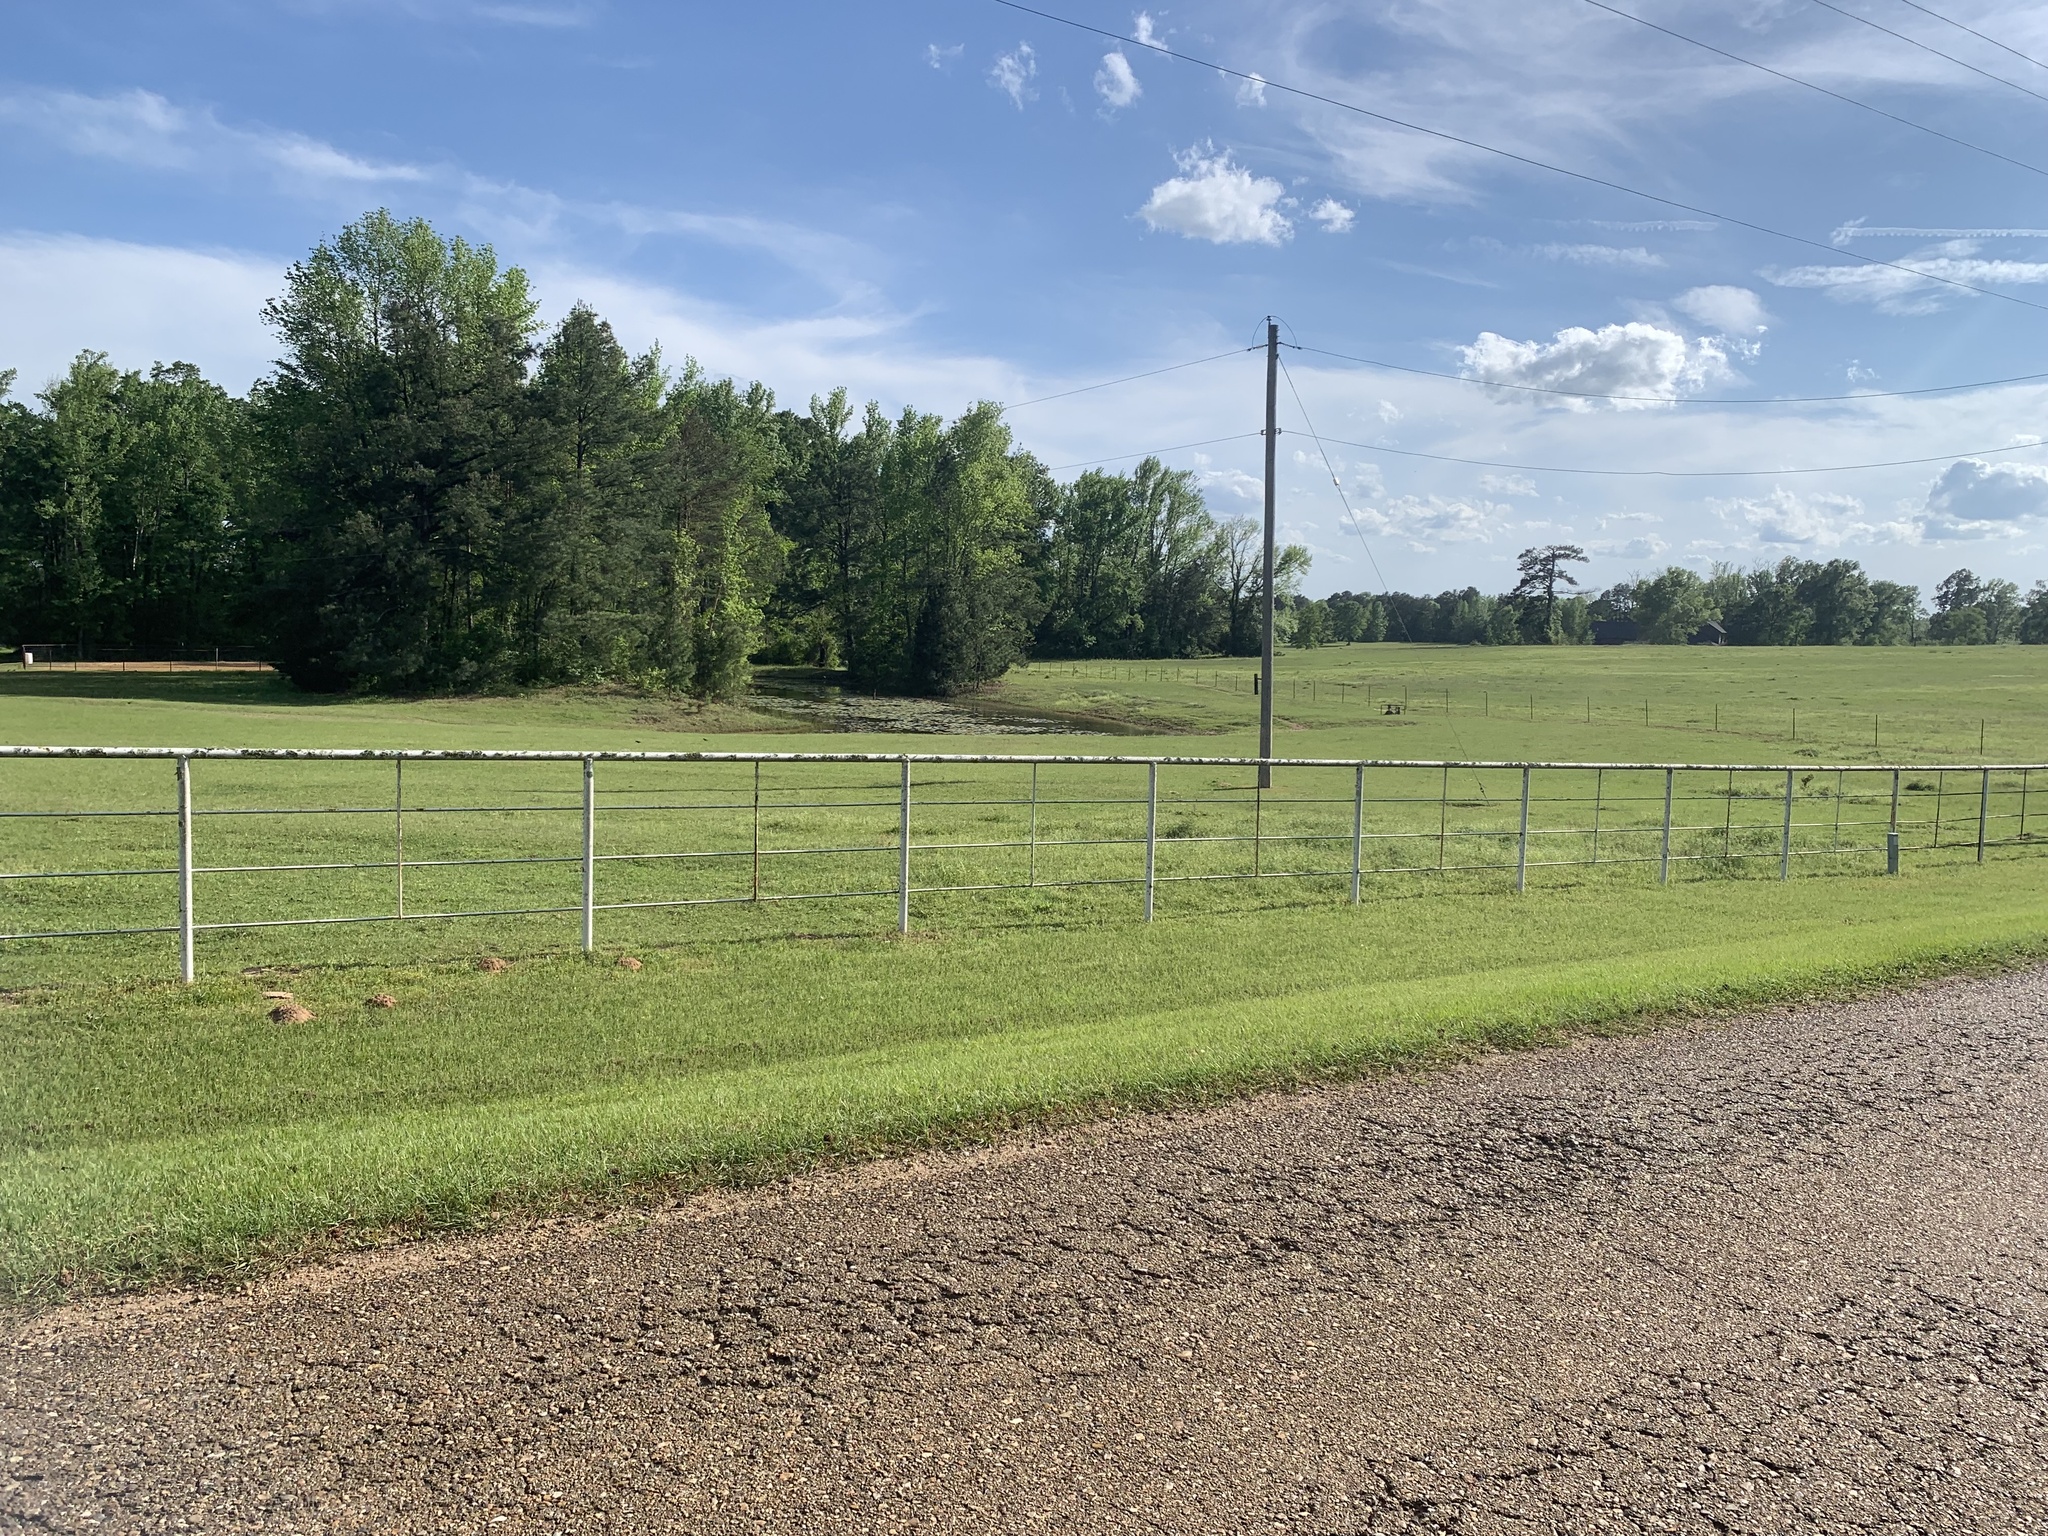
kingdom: Animalia
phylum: Chordata
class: Testudines
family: Chelydridae
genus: Chelydra
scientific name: Chelydra serpentina
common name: Common snapping turtle
